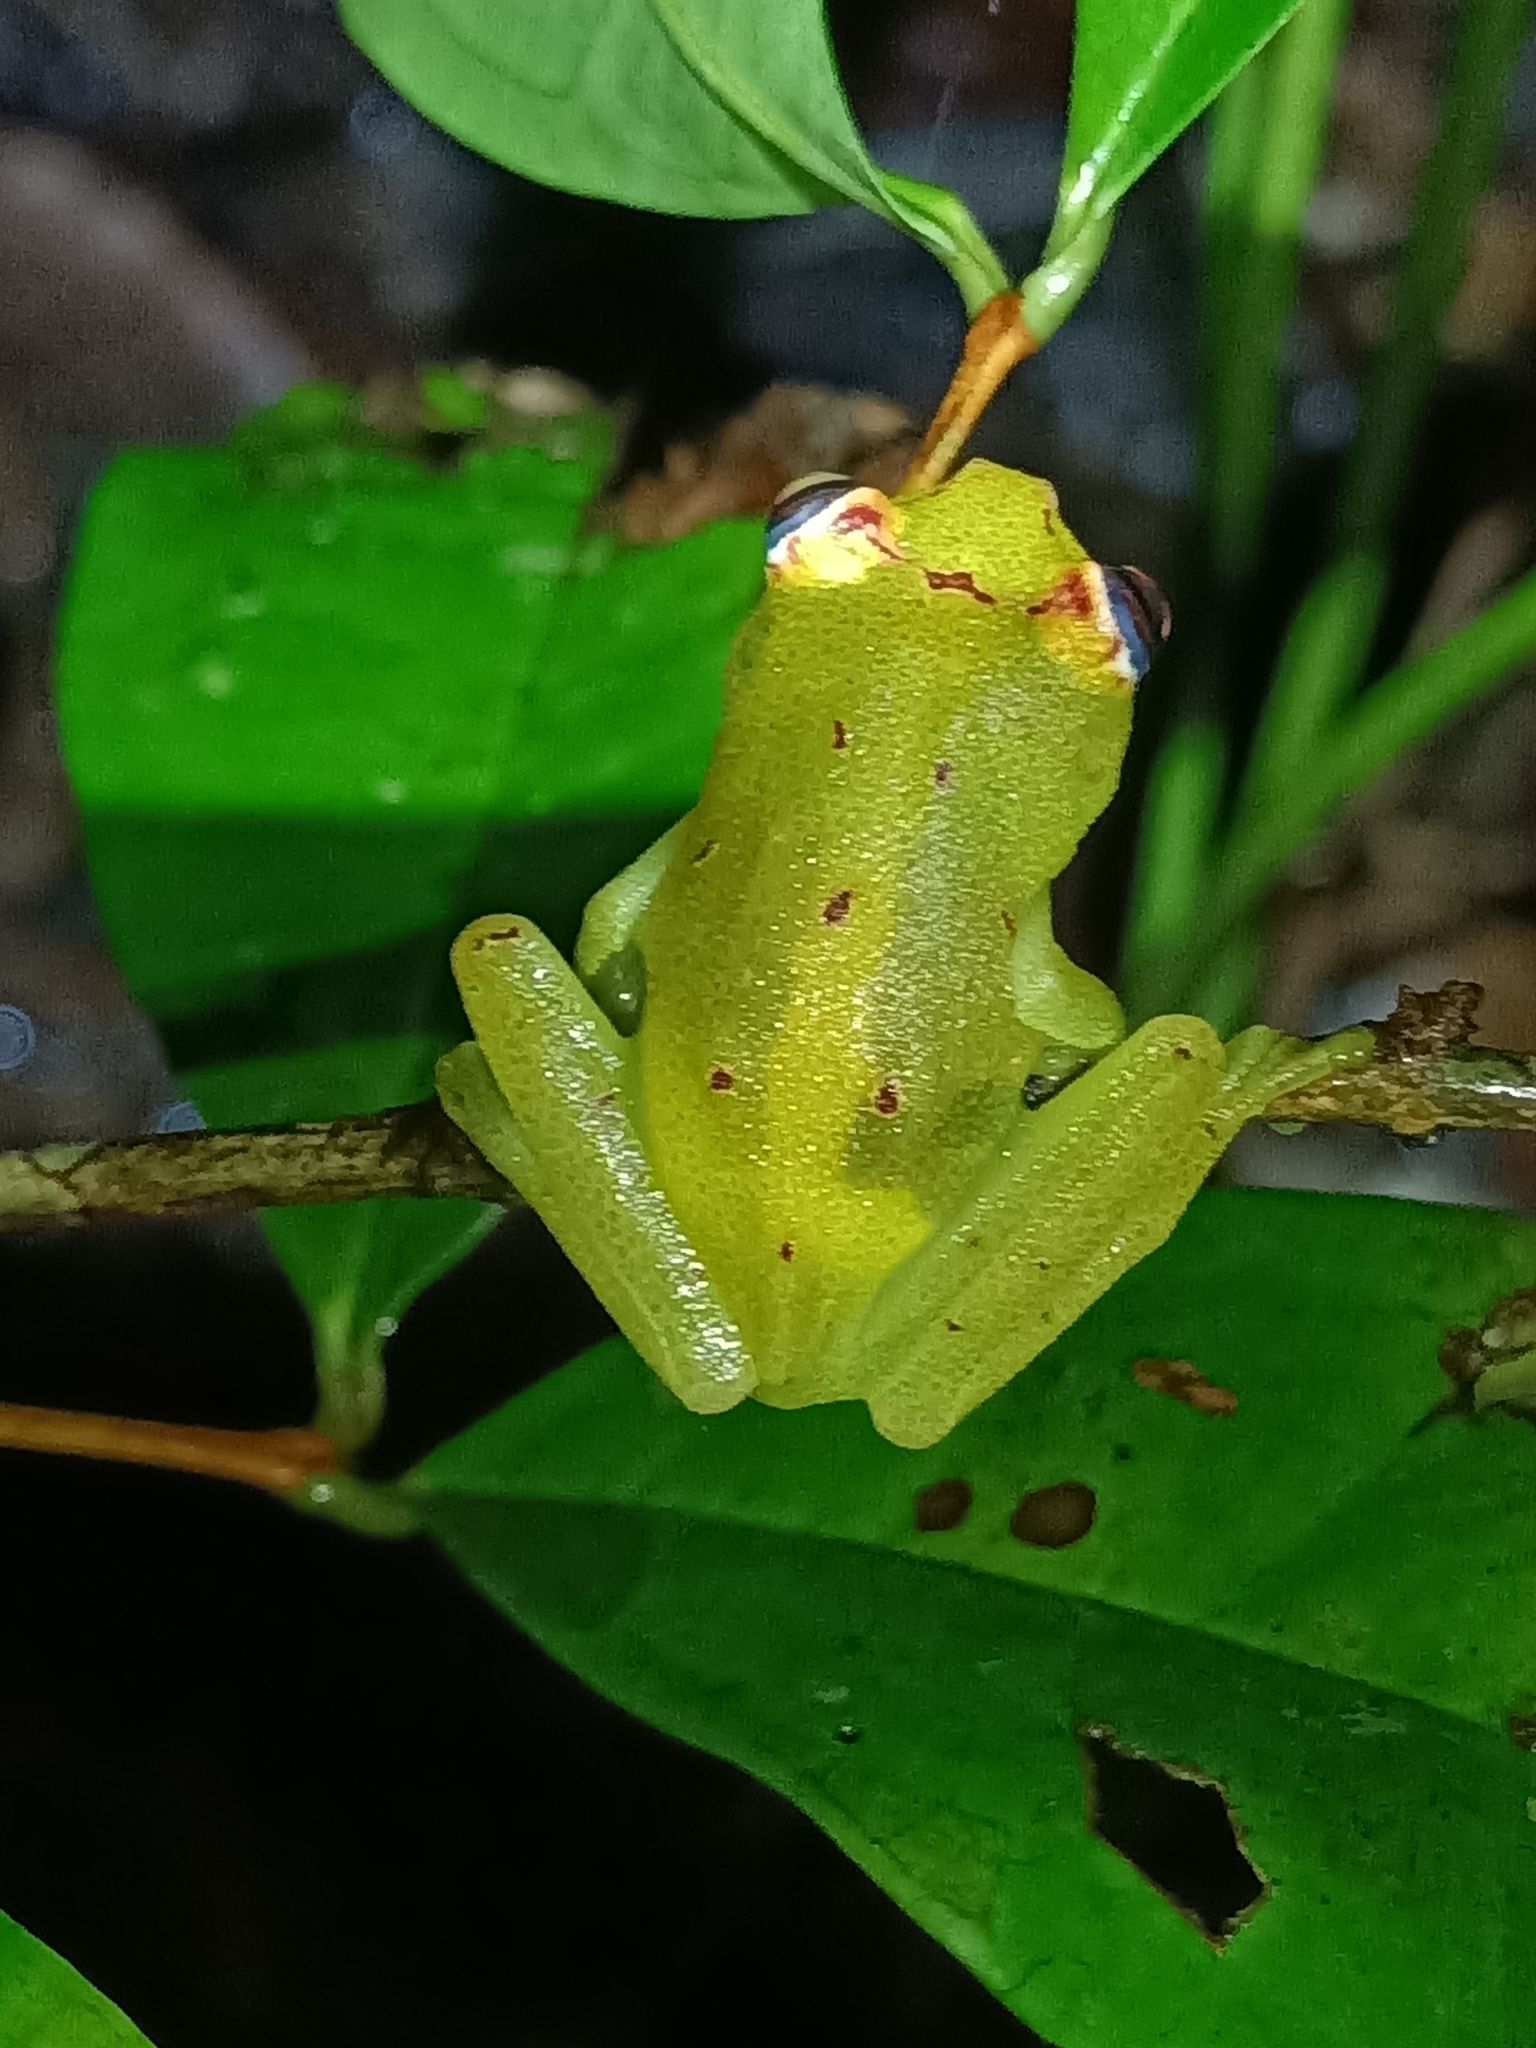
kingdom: Animalia
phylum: Chordata
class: Amphibia
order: Anura
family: Hylidae
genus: Boana
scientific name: Boana cinerascens
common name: Demerara falls treefrog
